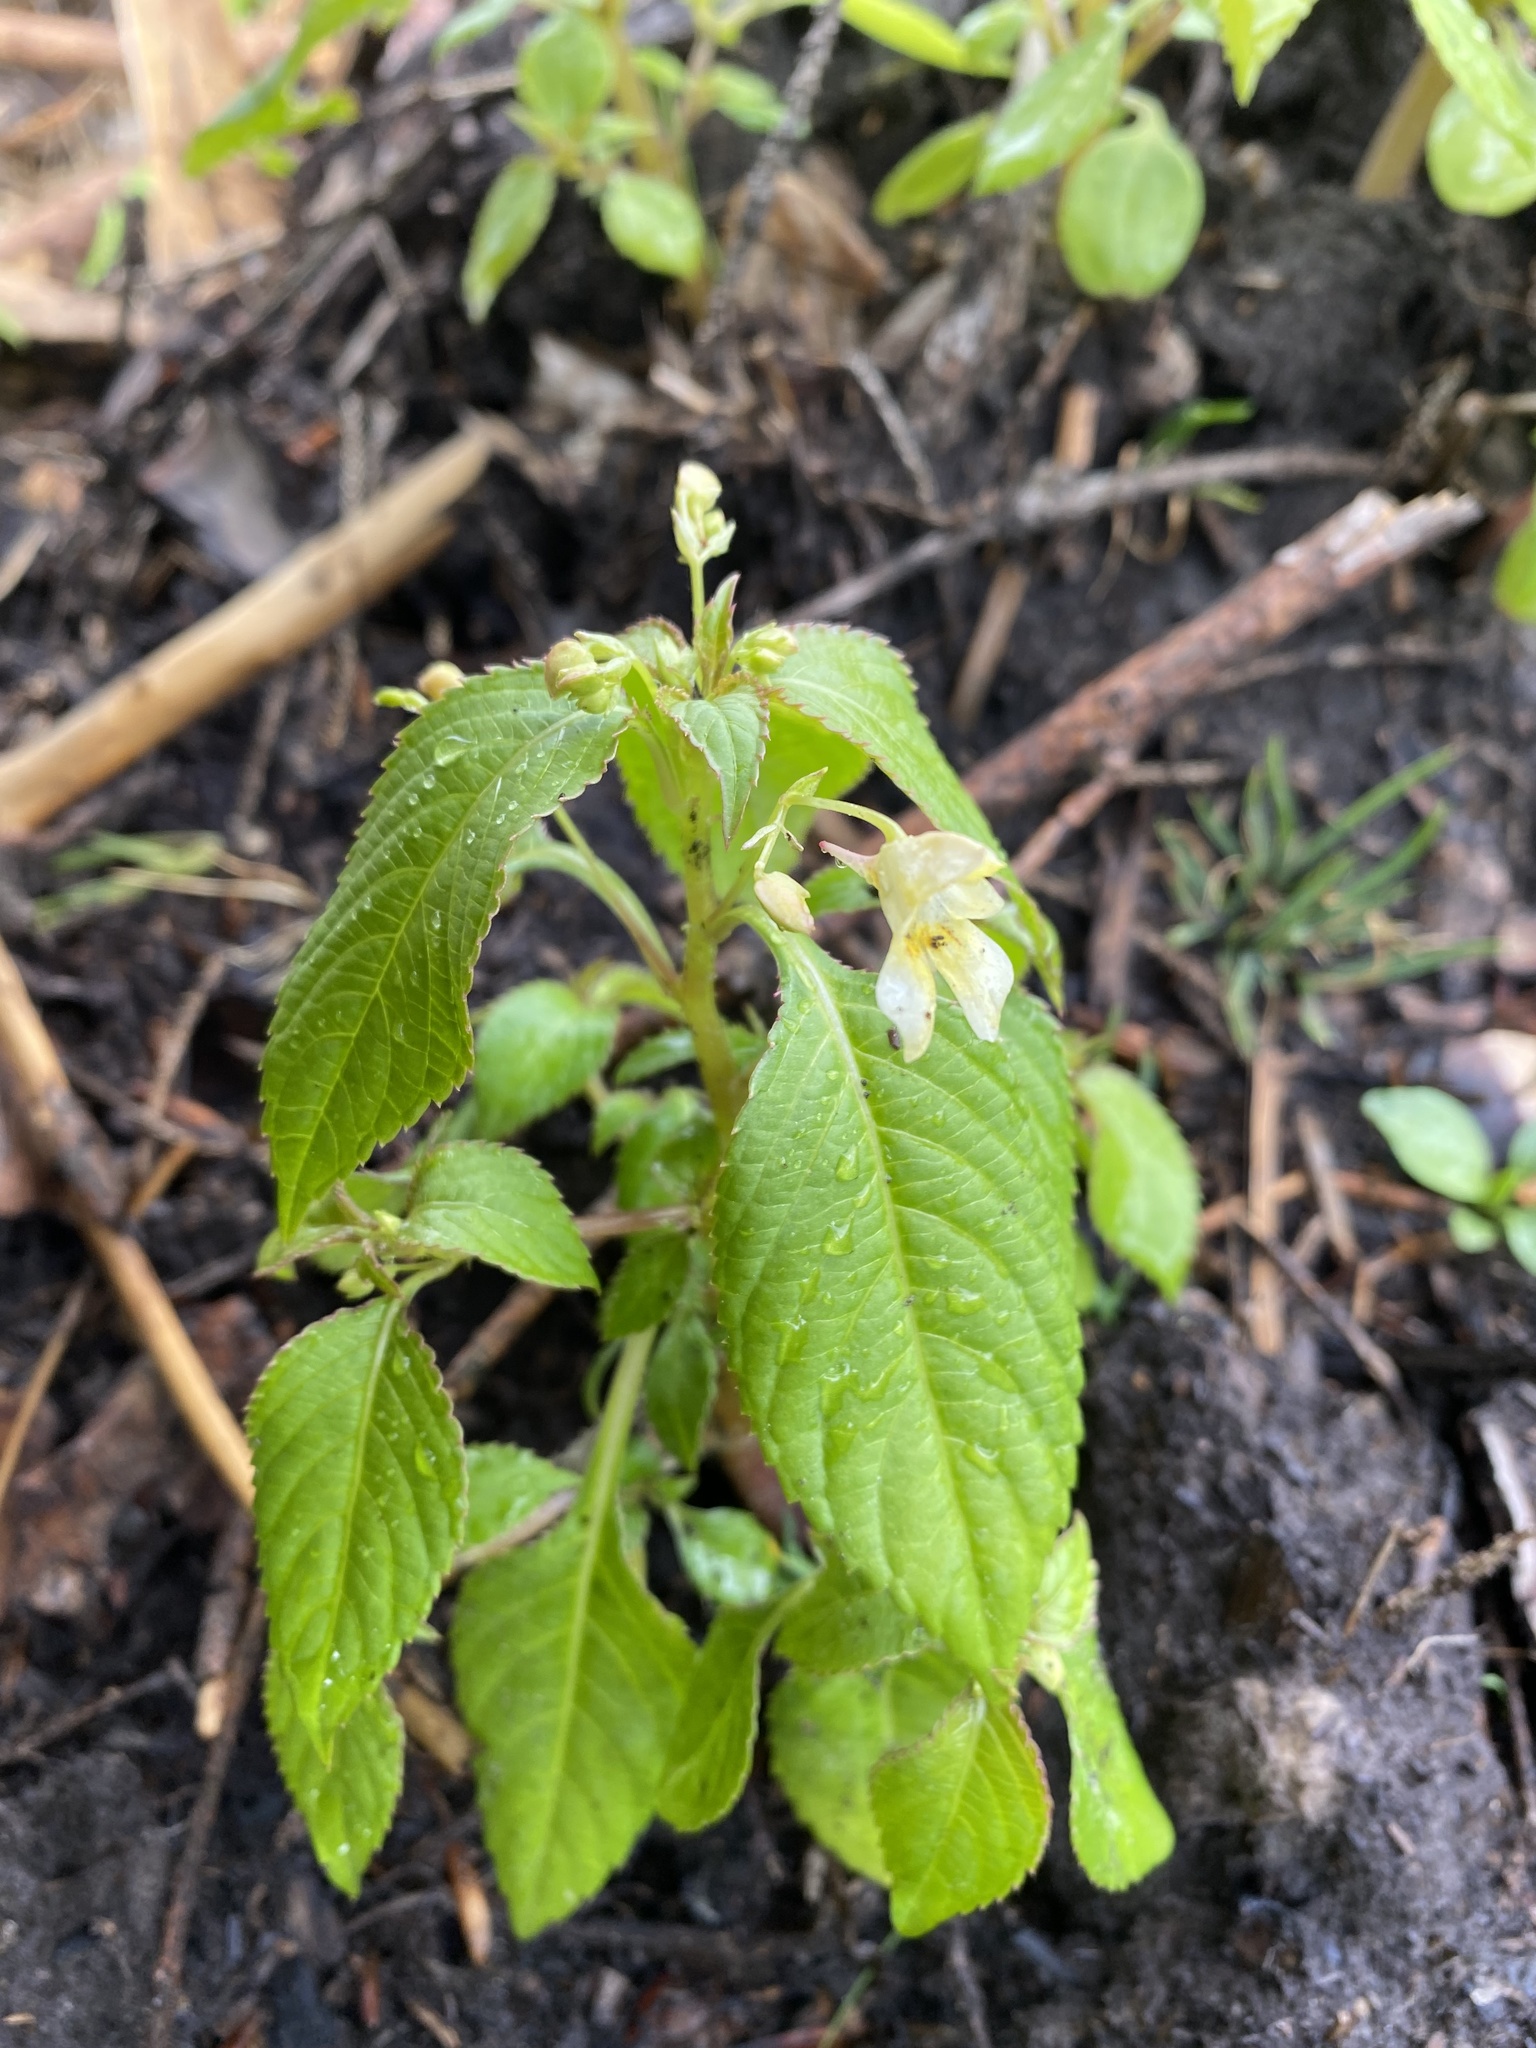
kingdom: Plantae
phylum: Tracheophyta
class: Magnoliopsida
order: Ericales
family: Balsaminaceae
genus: Impatiens
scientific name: Impatiens parviflora
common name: Small balsam
